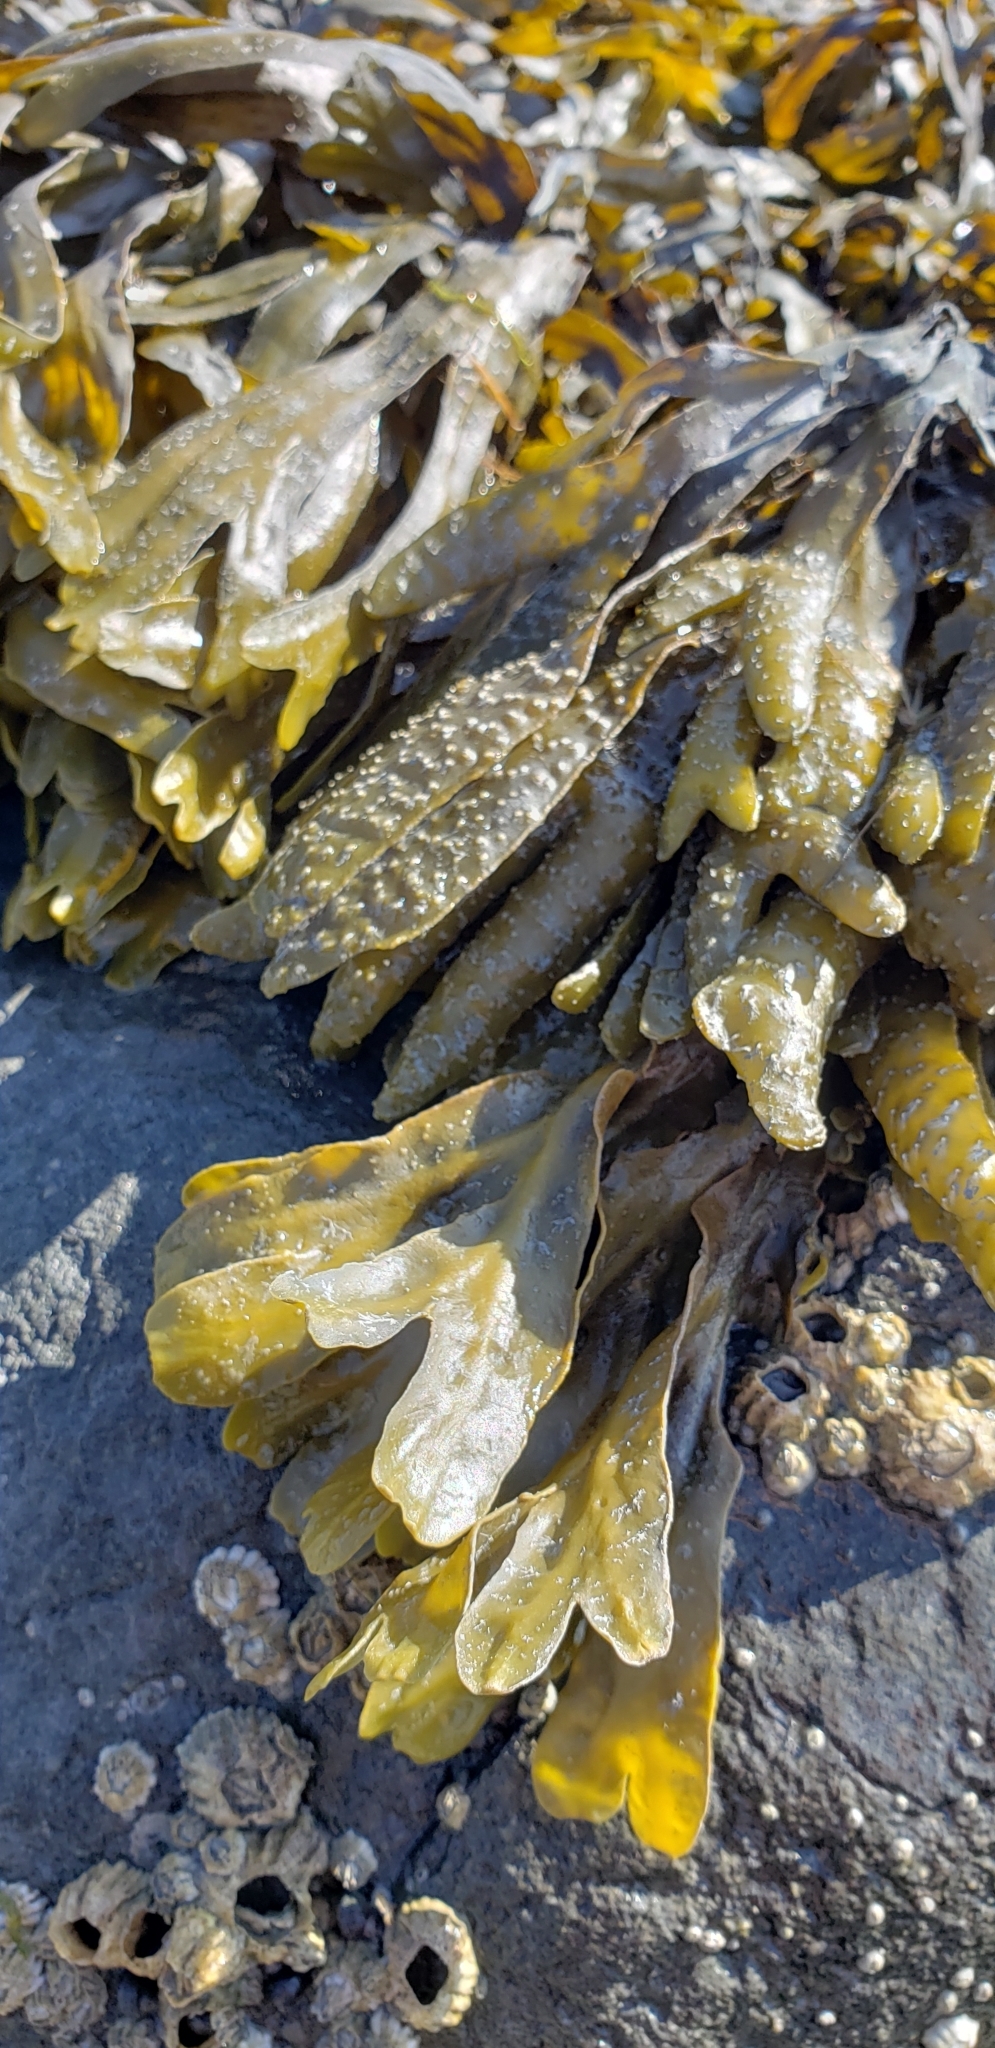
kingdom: Chromista
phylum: Ochrophyta
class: Phaeophyceae
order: Fucales
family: Fucaceae
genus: Fucus
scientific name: Fucus distichus
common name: Rockweed
